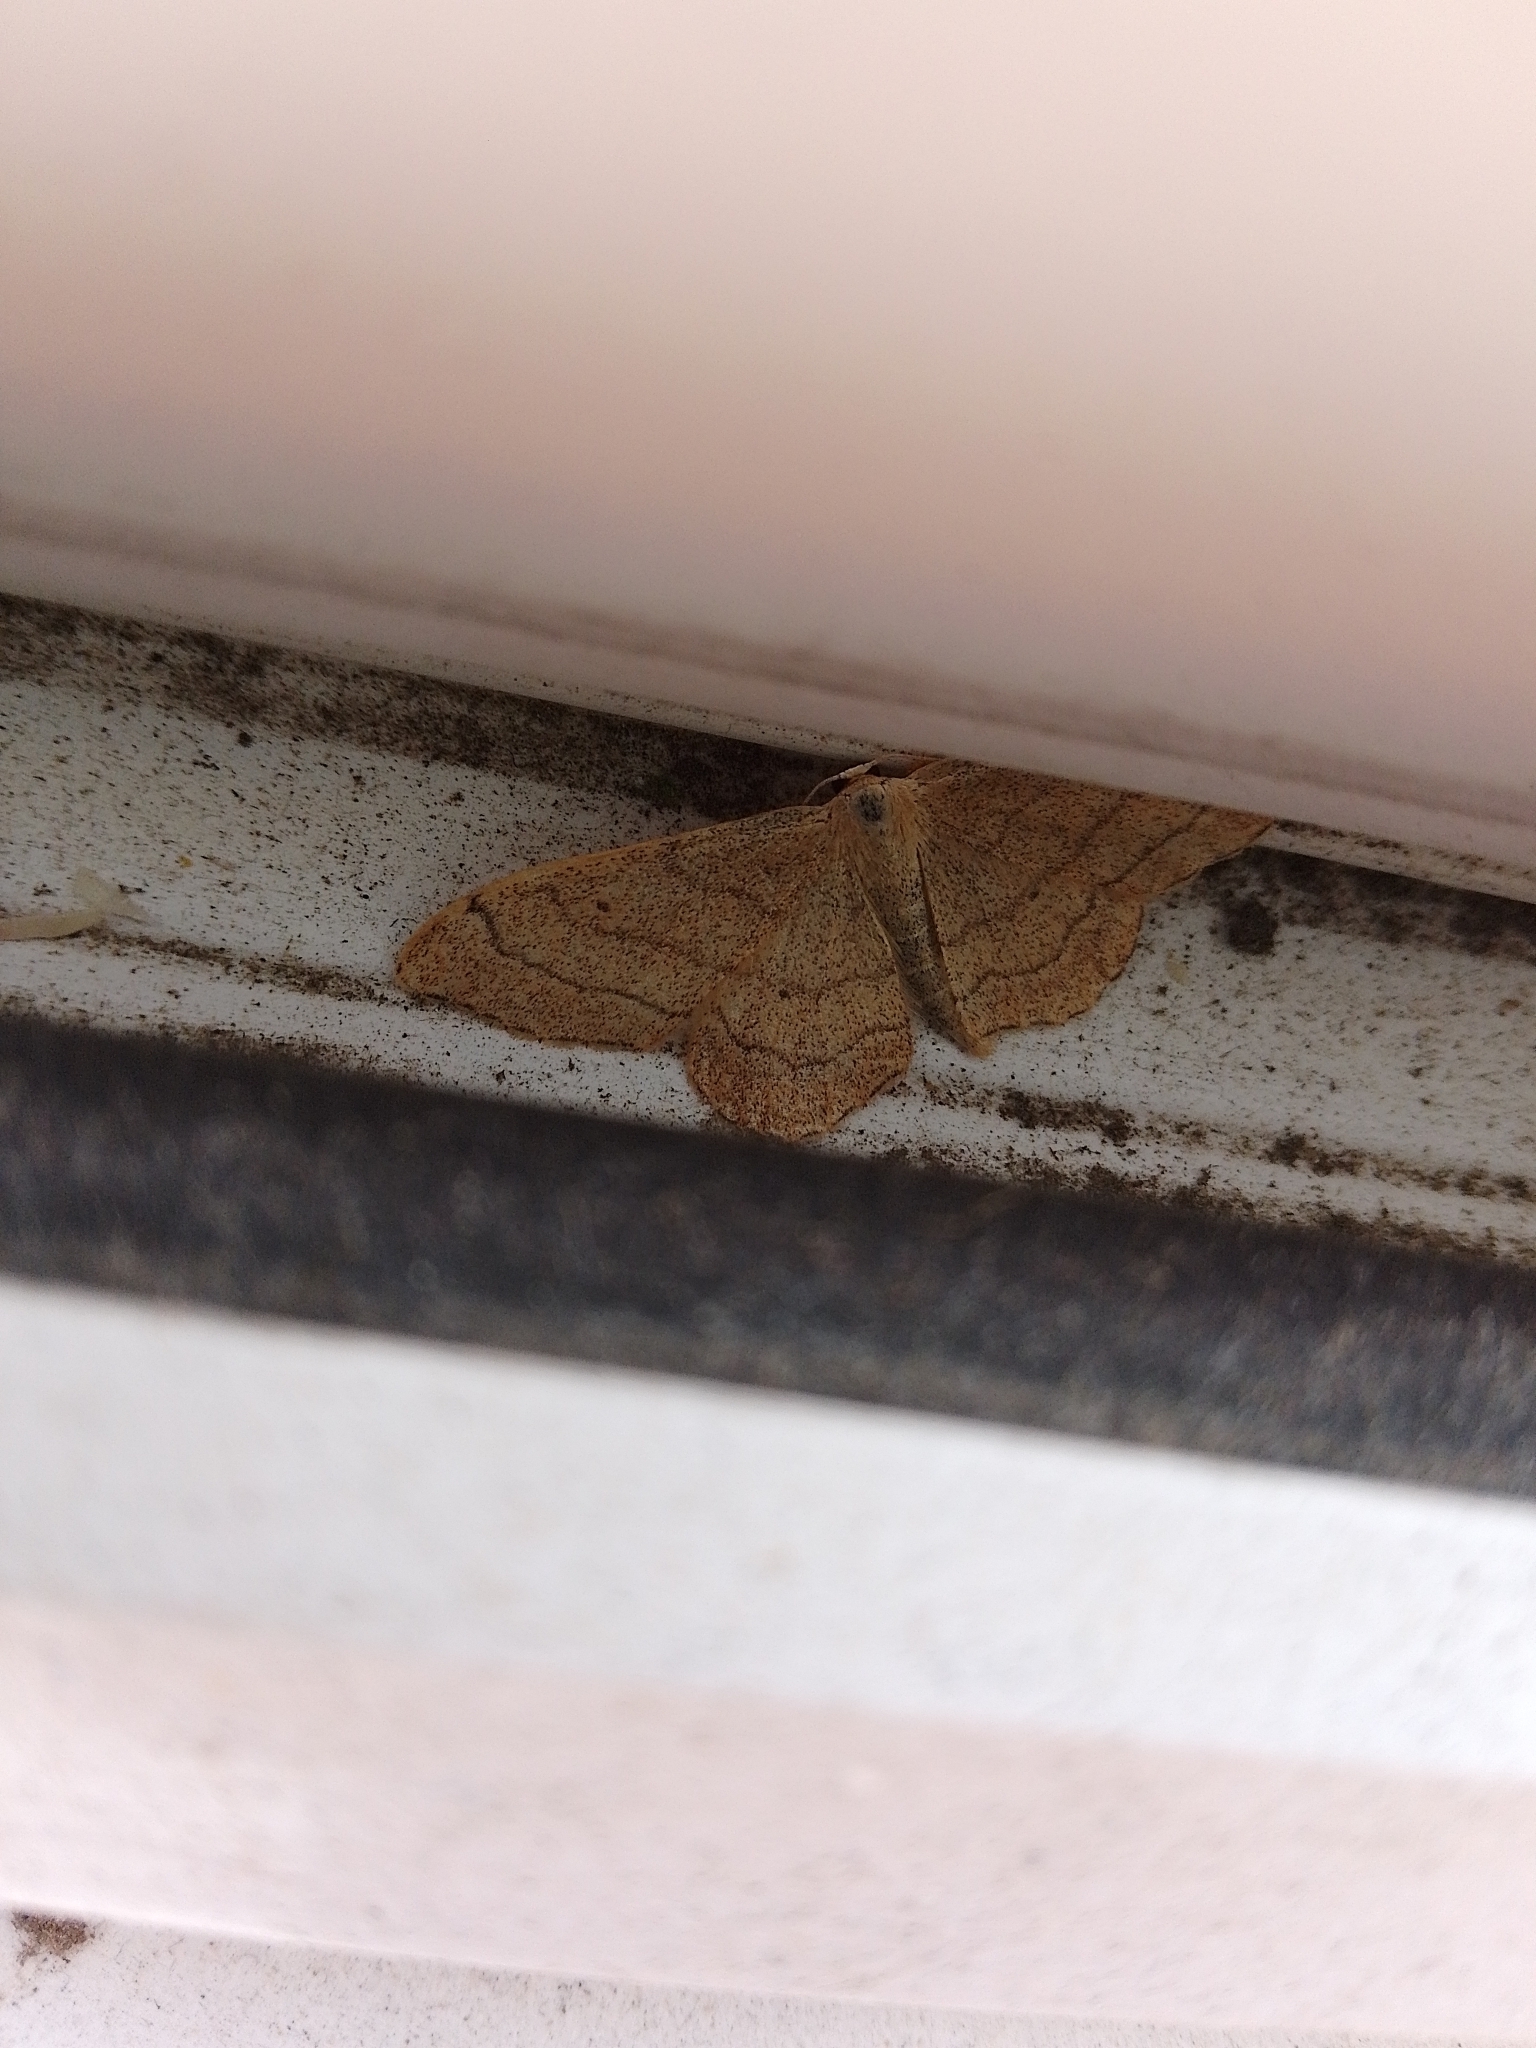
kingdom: Animalia
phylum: Arthropoda
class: Insecta
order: Lepidoptera
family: Geometridae
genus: Idaea
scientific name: Idaea aversata
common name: Riband wave
